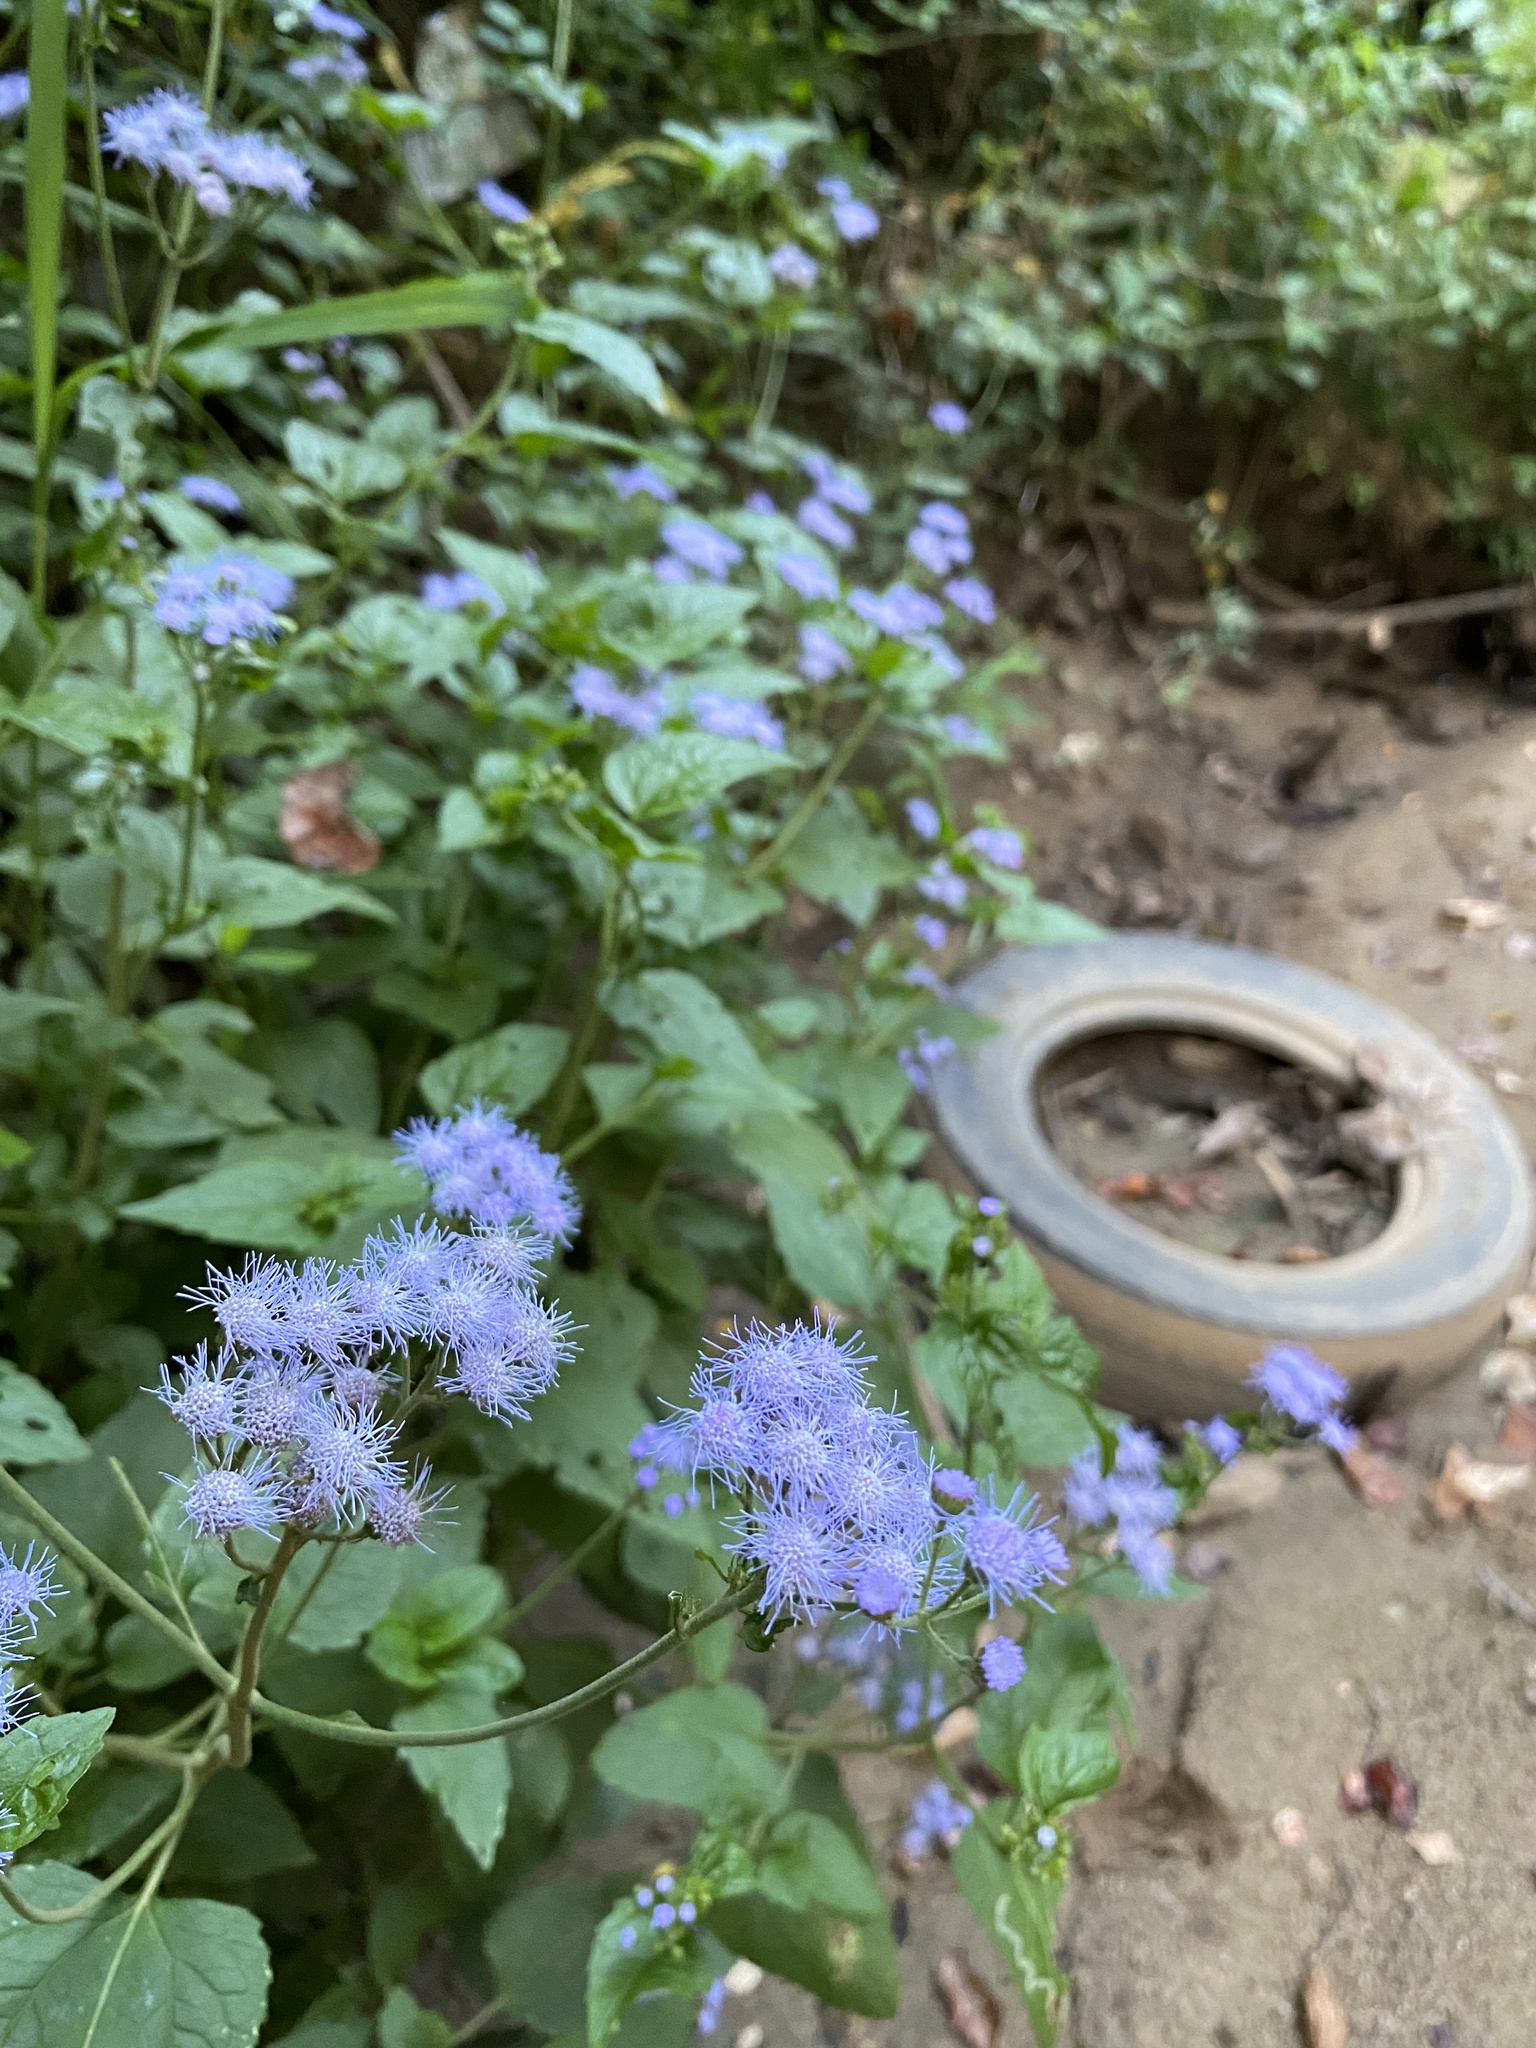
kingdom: Plantae
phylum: Tracheophyta
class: Magnoliopsida
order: Asterales
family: Asteraceae
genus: Conoclinium
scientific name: Conoclinium coelestinum
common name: Blue mistflower
